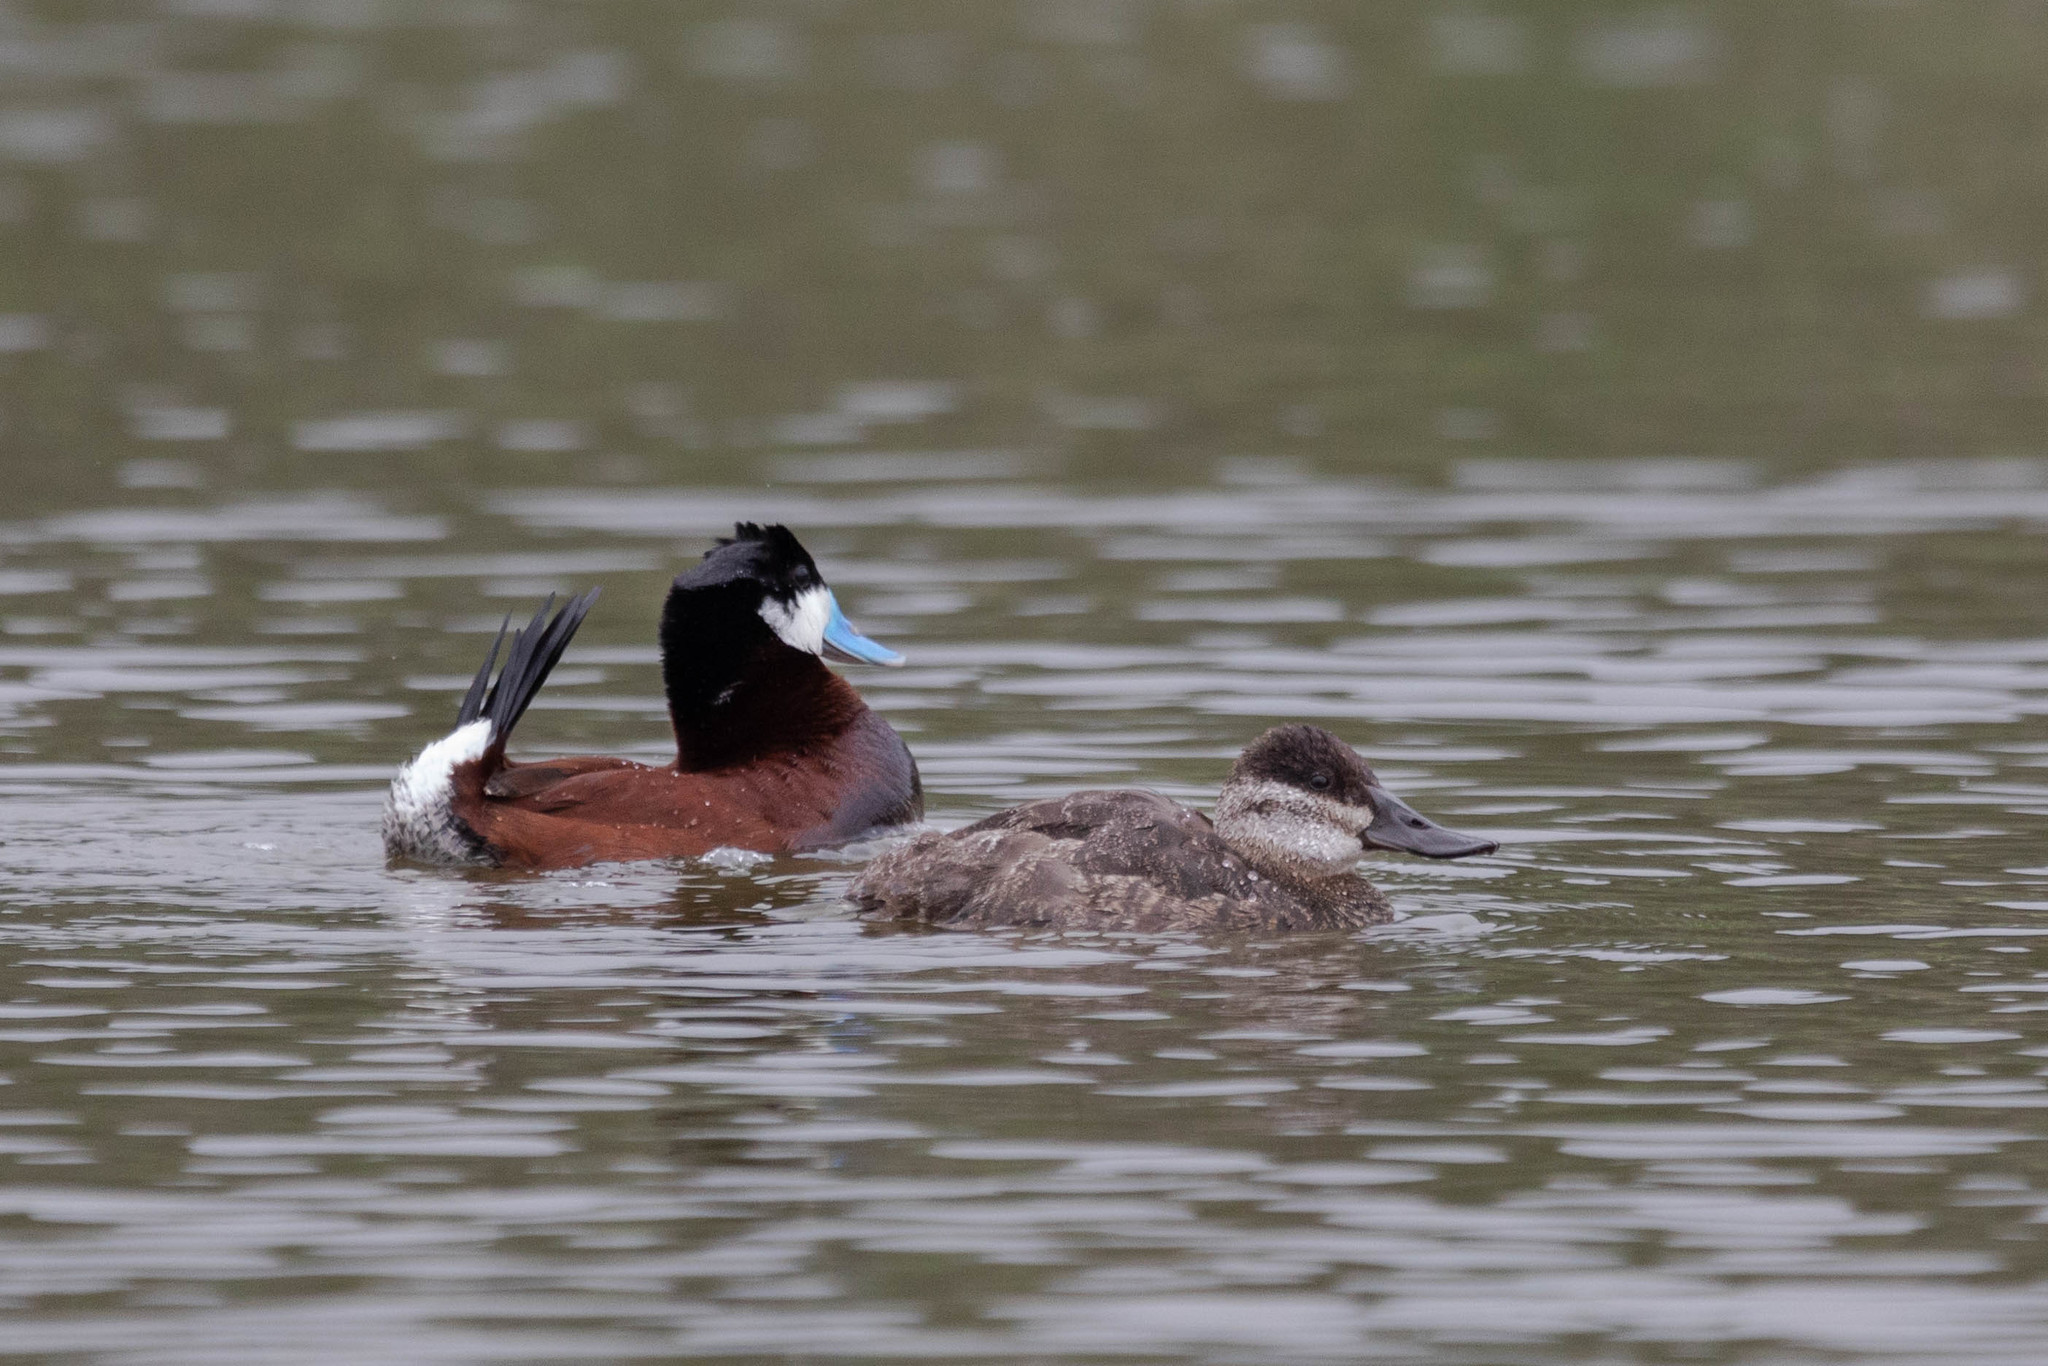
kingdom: Animalia
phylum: Chordata
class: Aves
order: Anseriformes
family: Anatidae
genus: Oxyura
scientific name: Oxyura jamaicensis
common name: Ruddy duck
